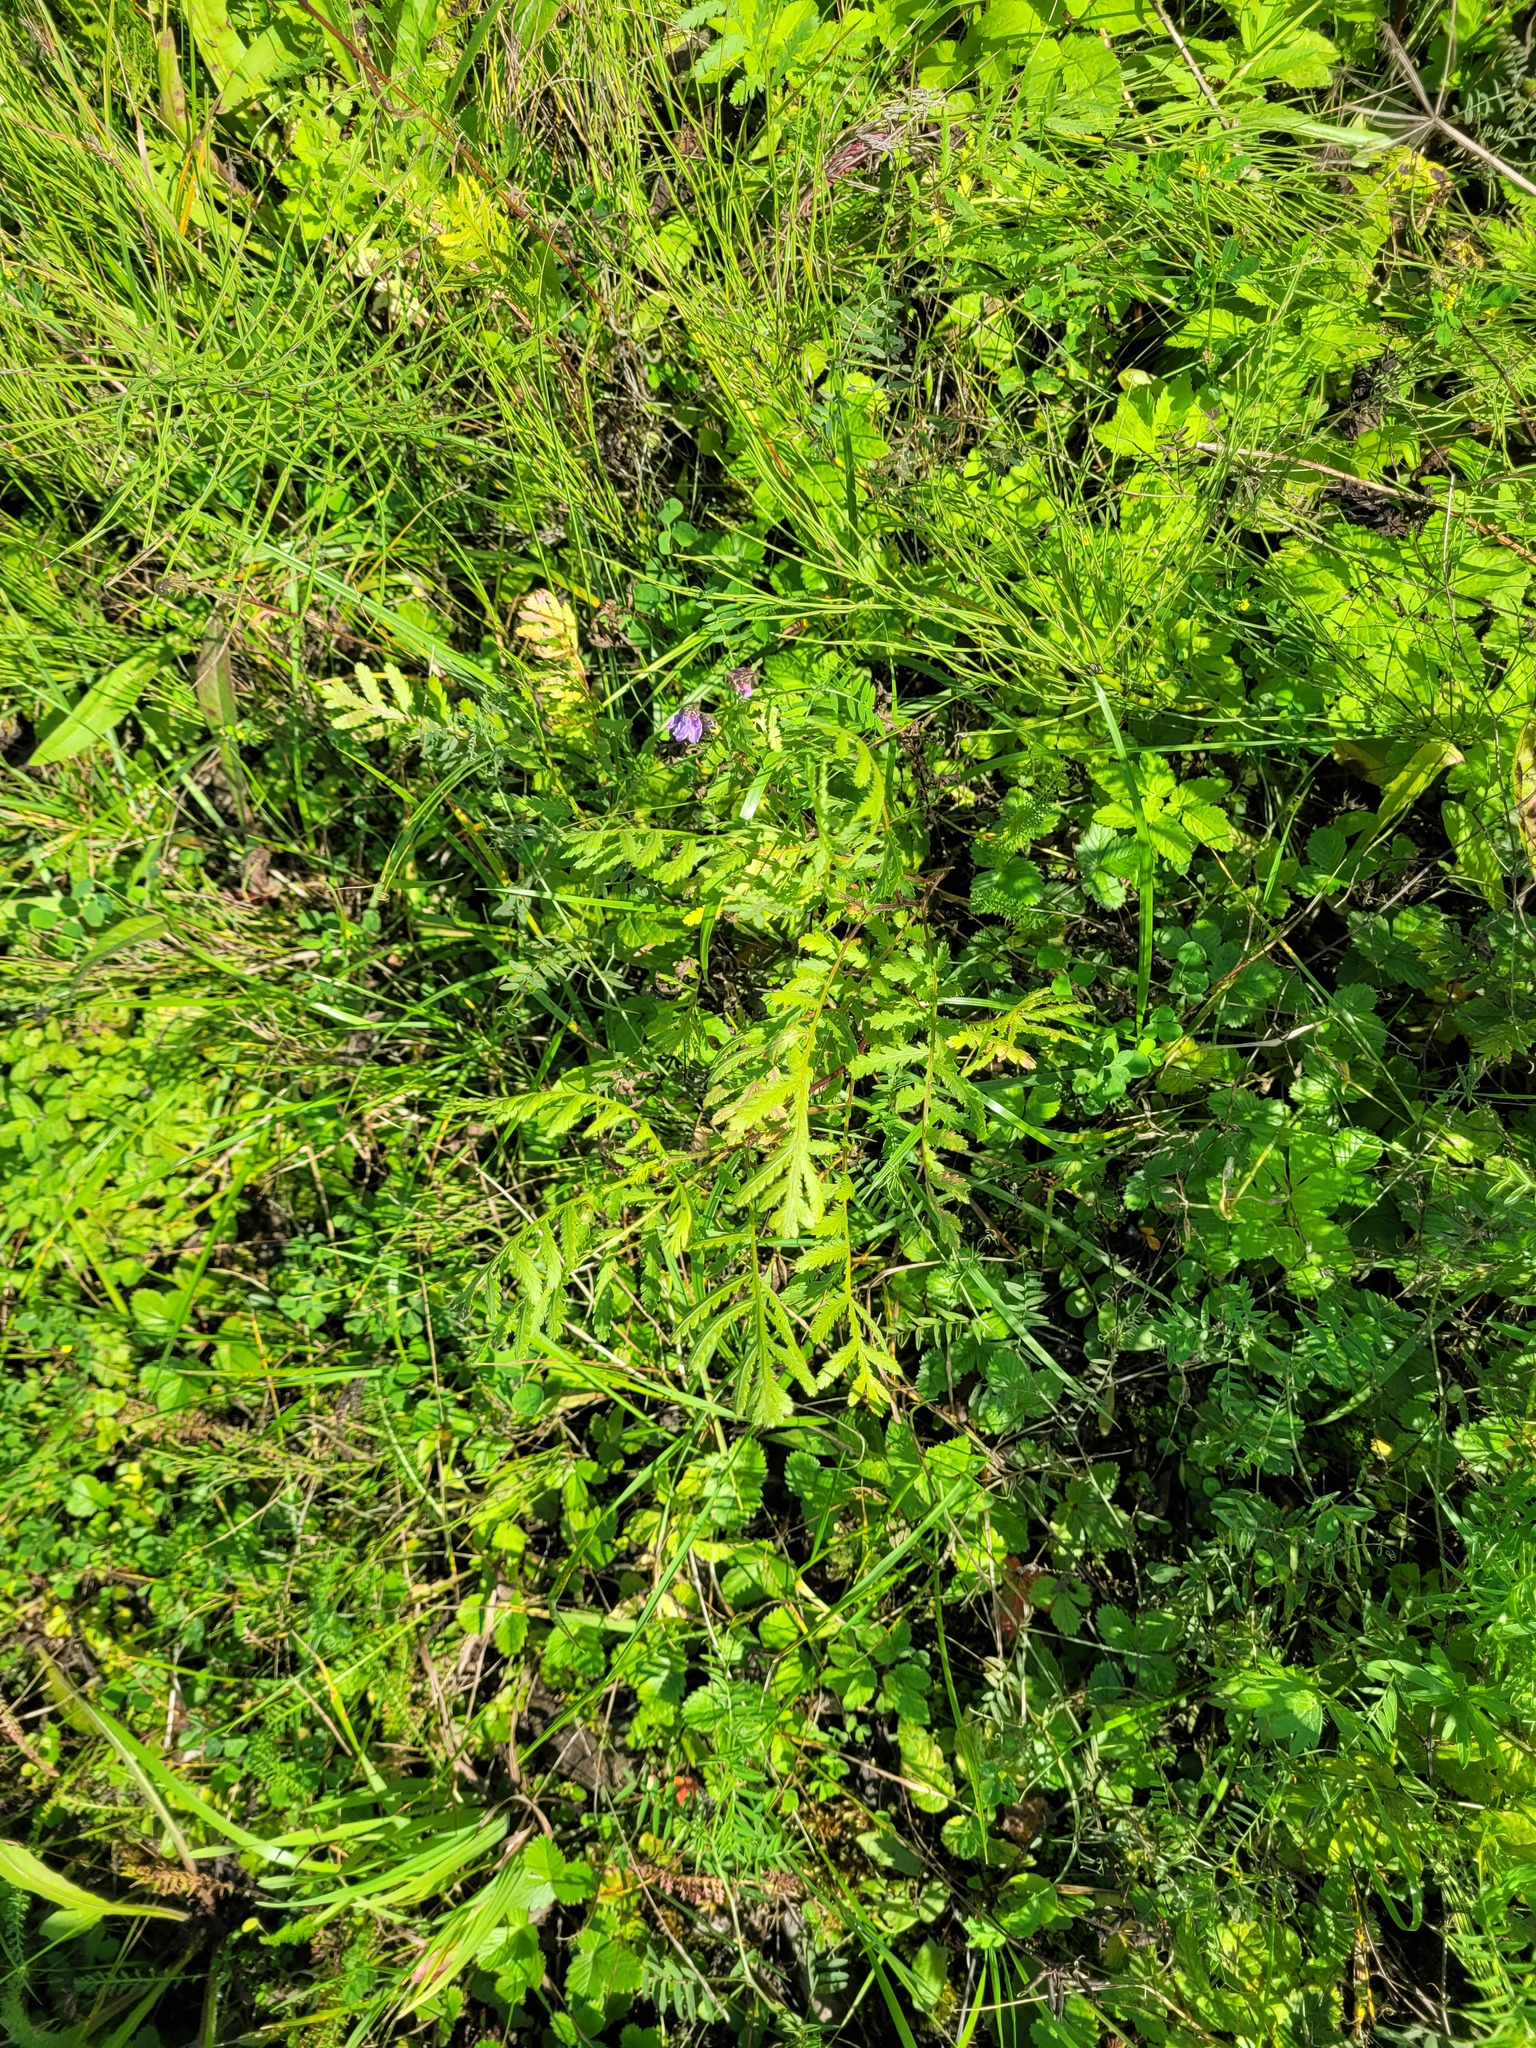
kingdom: Plantae
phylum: Tracheophyta
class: Magnoliopsida
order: Asterales
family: Asteraceae
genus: Tanacetum
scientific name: Tanacetum vulgare
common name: Common tansy
